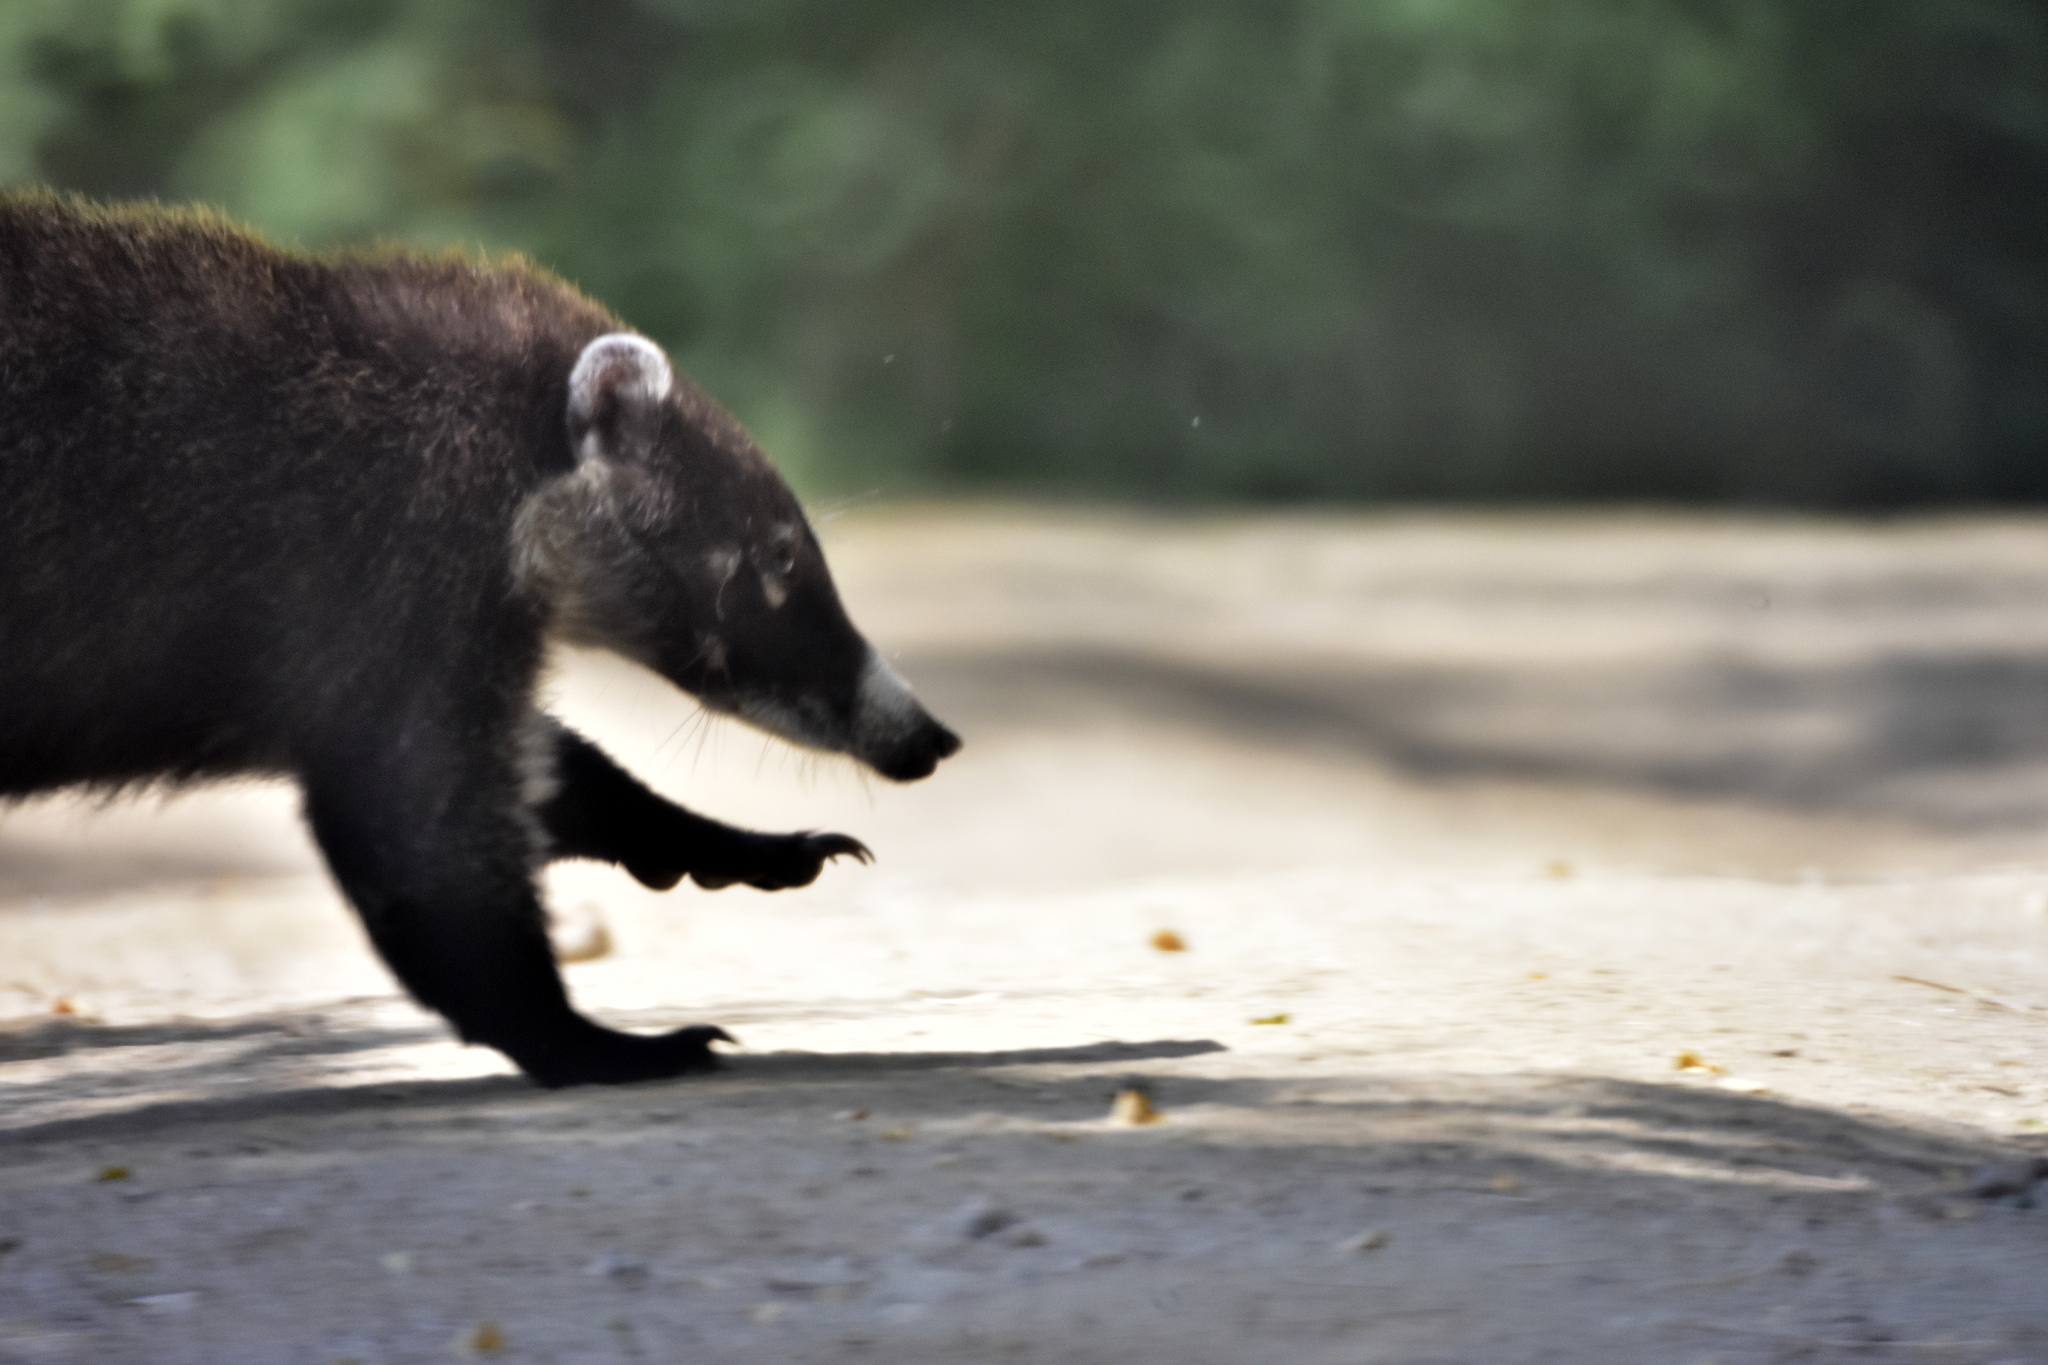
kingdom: Animalia
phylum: Chordata
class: Mammalia
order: Carnivora
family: Procyonidae
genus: Nasua
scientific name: Nasua narica
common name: White-nosed coati
